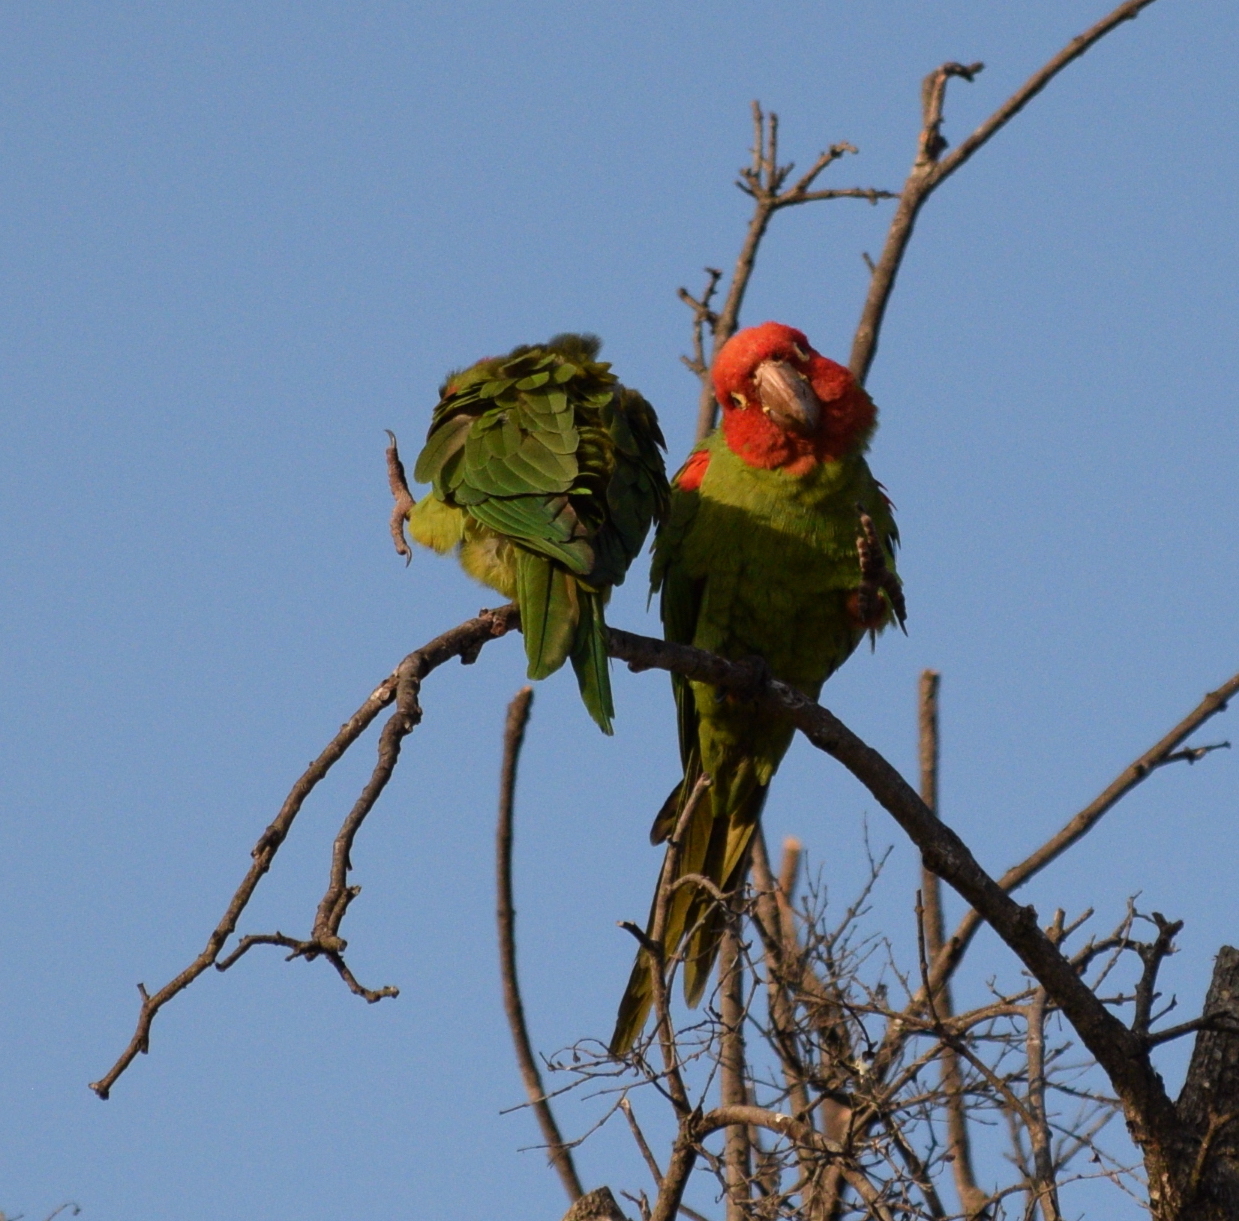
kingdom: Animalia
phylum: Chordata
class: Aves
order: Psittaciformes
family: Psittacidae
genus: Aratinga
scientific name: Aratinga erythrogenys
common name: Red-masked parakeet
